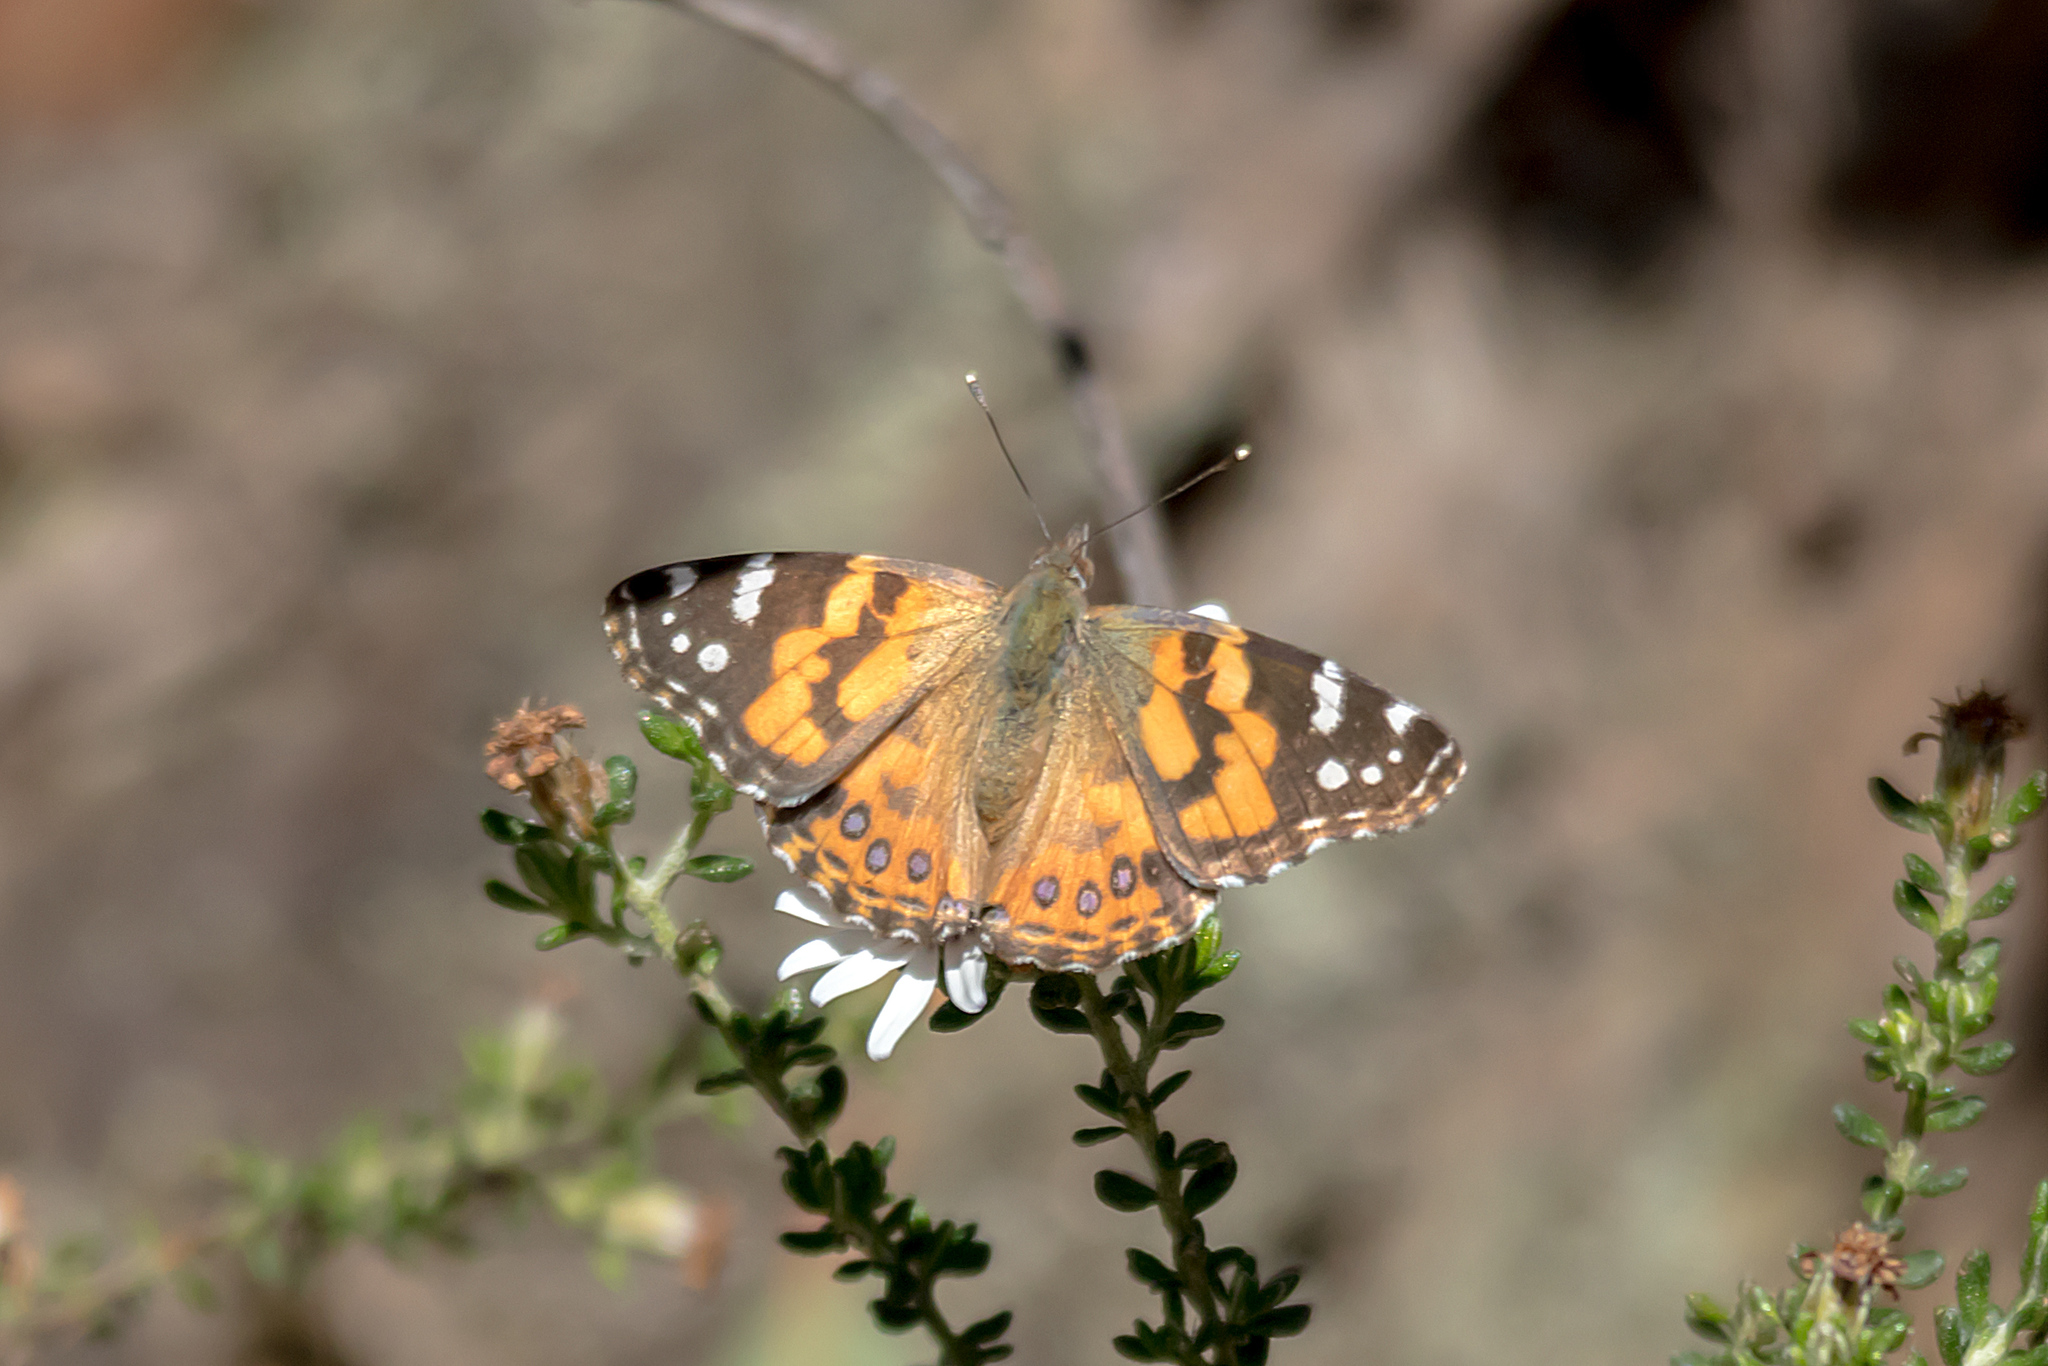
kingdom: Animalia
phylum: Arthropoda
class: Insecta
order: Lepidoptera
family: Nymphalidae
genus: Vanessa
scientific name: Vanessa kershawi
